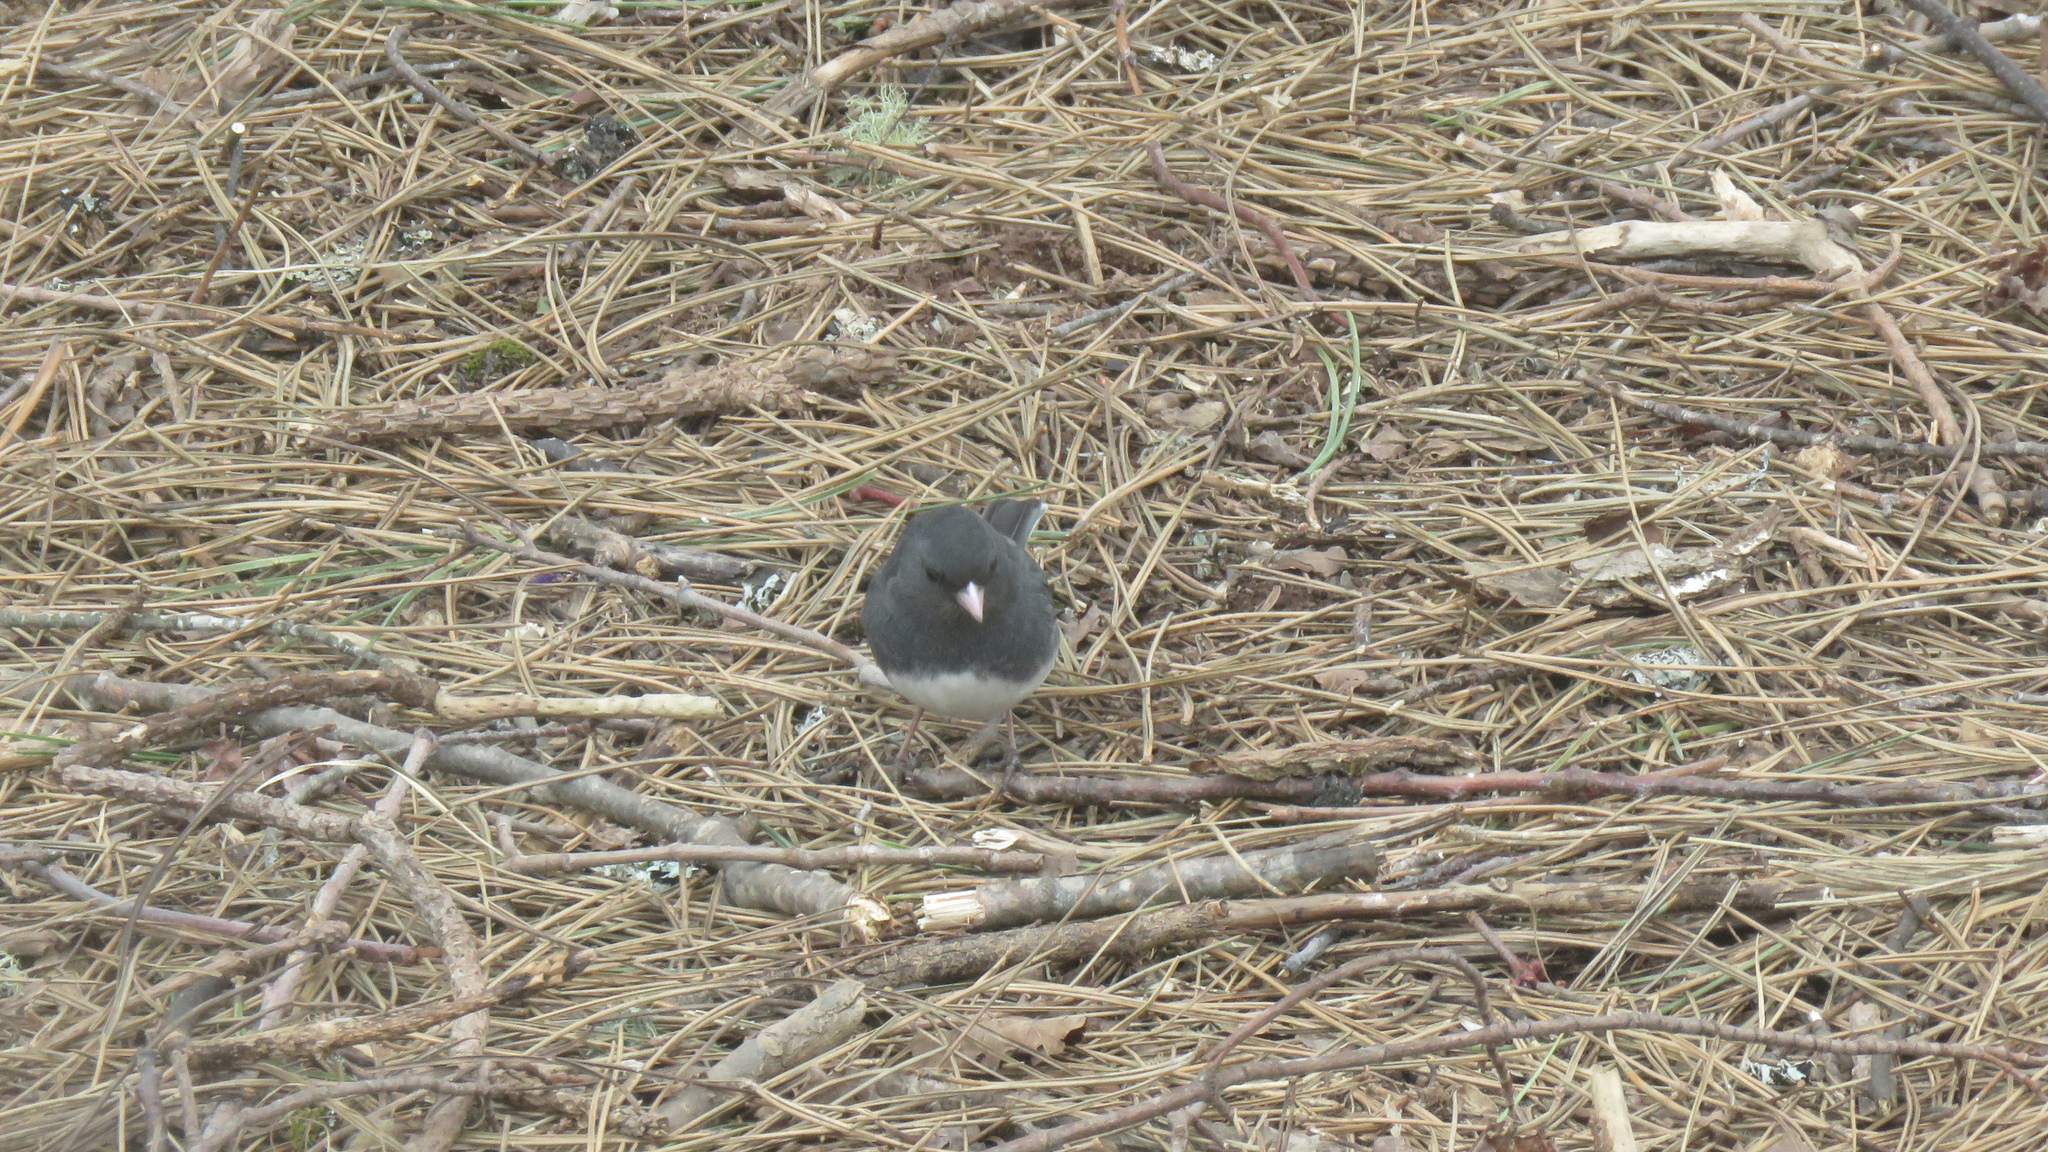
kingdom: Animalia
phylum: Chordata
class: Aves
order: Passeriformes
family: Passerellidae
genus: Junco
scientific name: Junco hyemalis
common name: Dark-eyed junco
